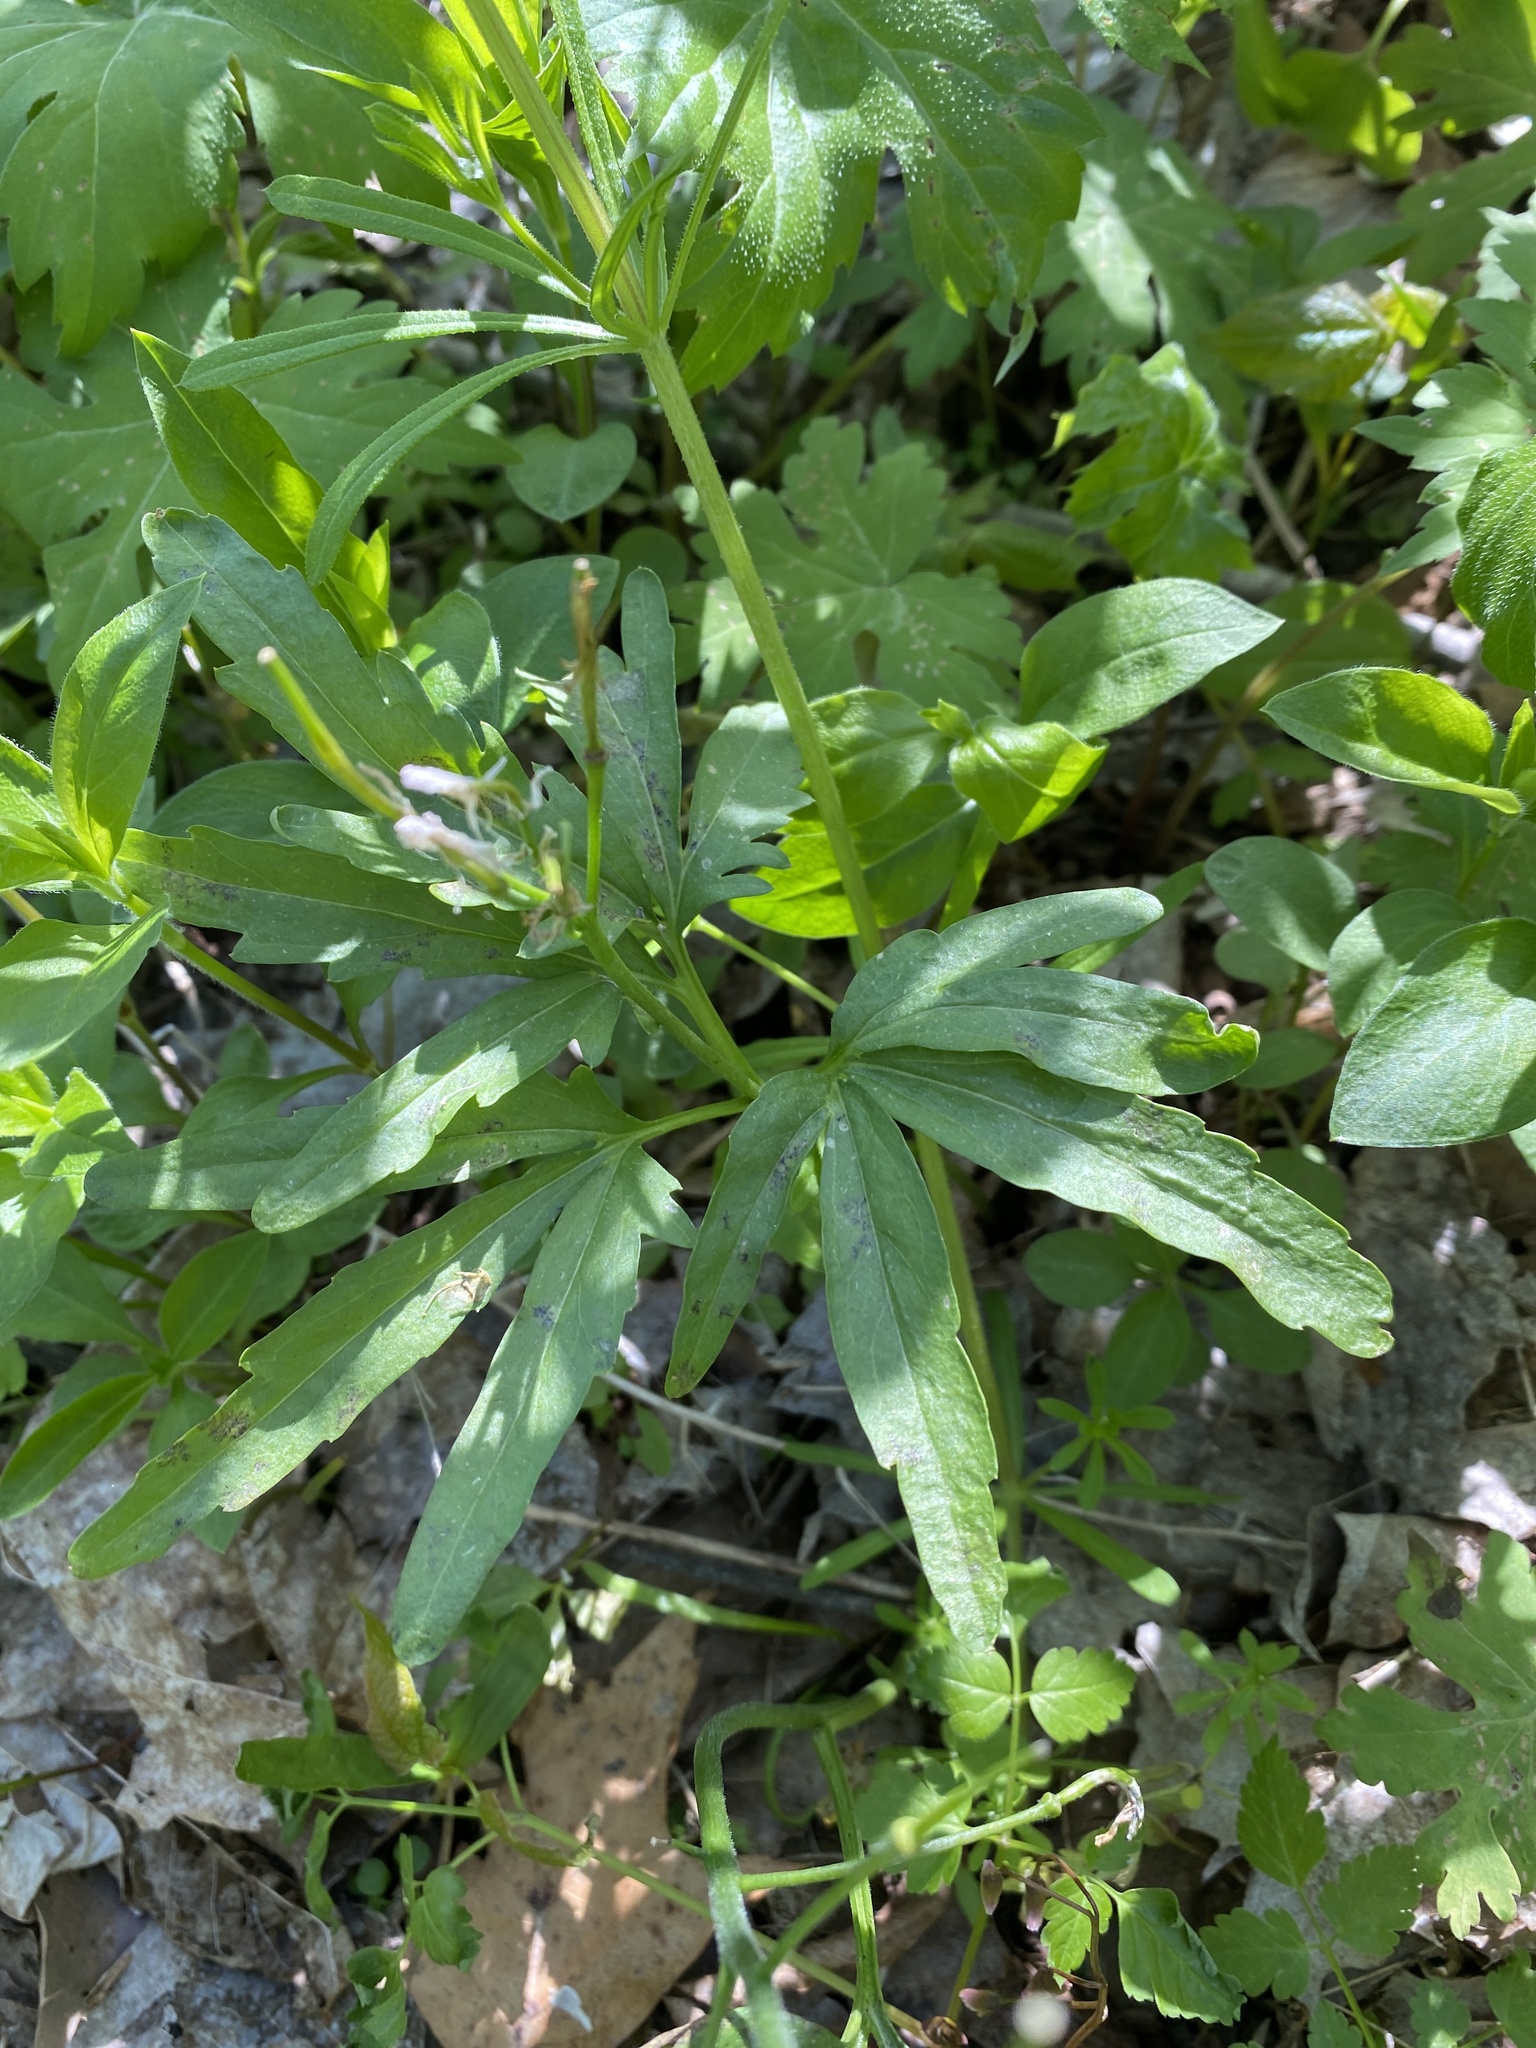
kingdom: Plantae
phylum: Tracheophyta
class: Magnoliopsida
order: Brassicales
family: Brassicaceae
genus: Cardamine
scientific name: Cardamine concatenata
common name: Cut-leaf toothcup
